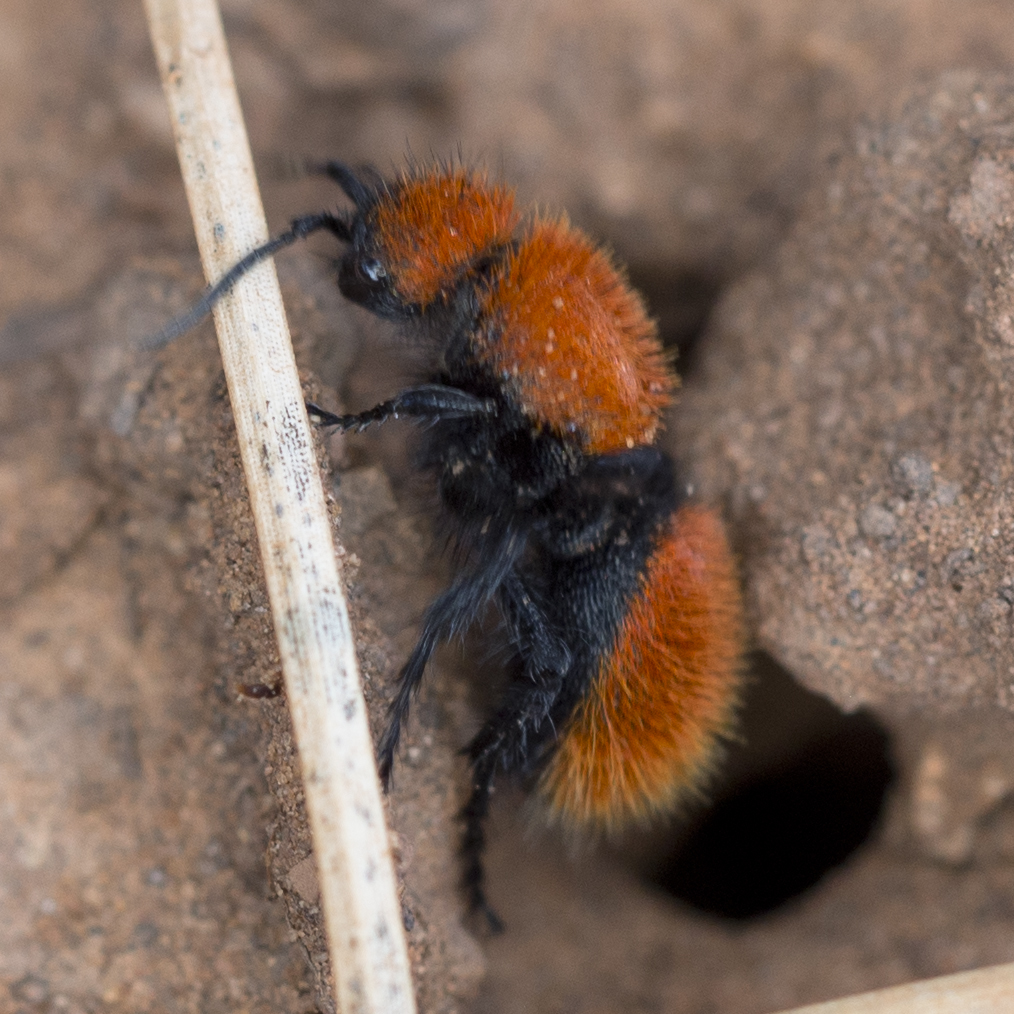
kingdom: Animalia
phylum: Arthropoda
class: Insecta
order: Hymenoptera
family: Mutillidae
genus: Dasymutilla
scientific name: Dasymutilla vestita
